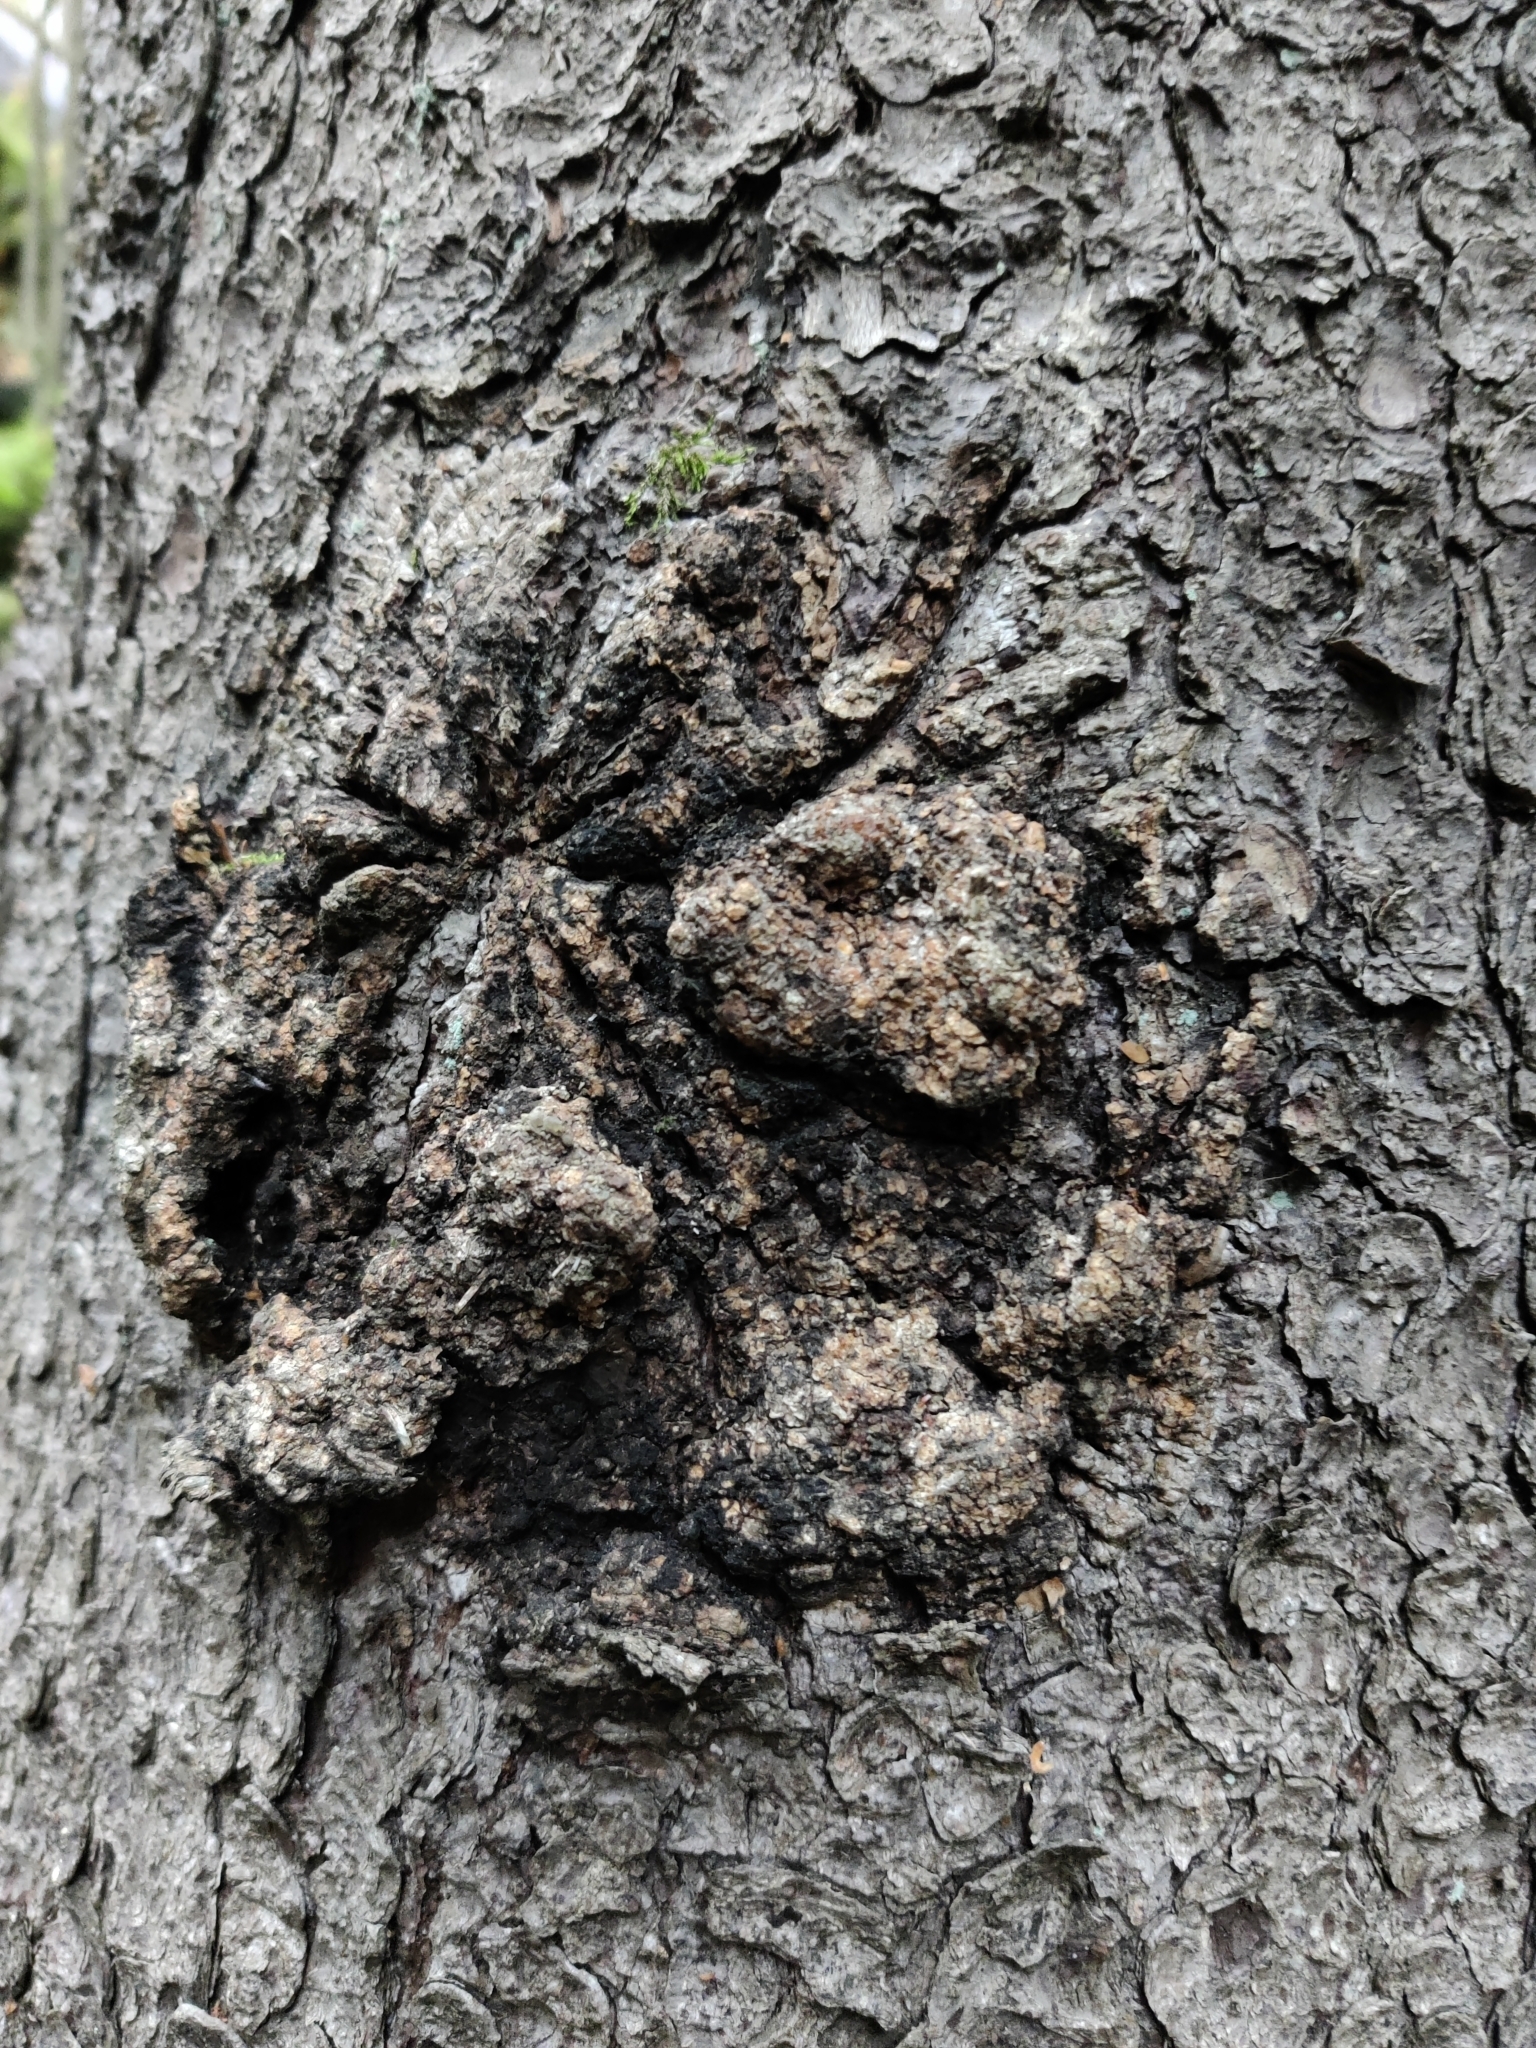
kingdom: Bacteria
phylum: Proteobacteria
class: Alphaproteobacteria
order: Rhizobiales
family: Rhizobiaceae
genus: Rhizobium
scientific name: Rhizobium Agrobacterium radiobacter
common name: Bacterial crown gall
